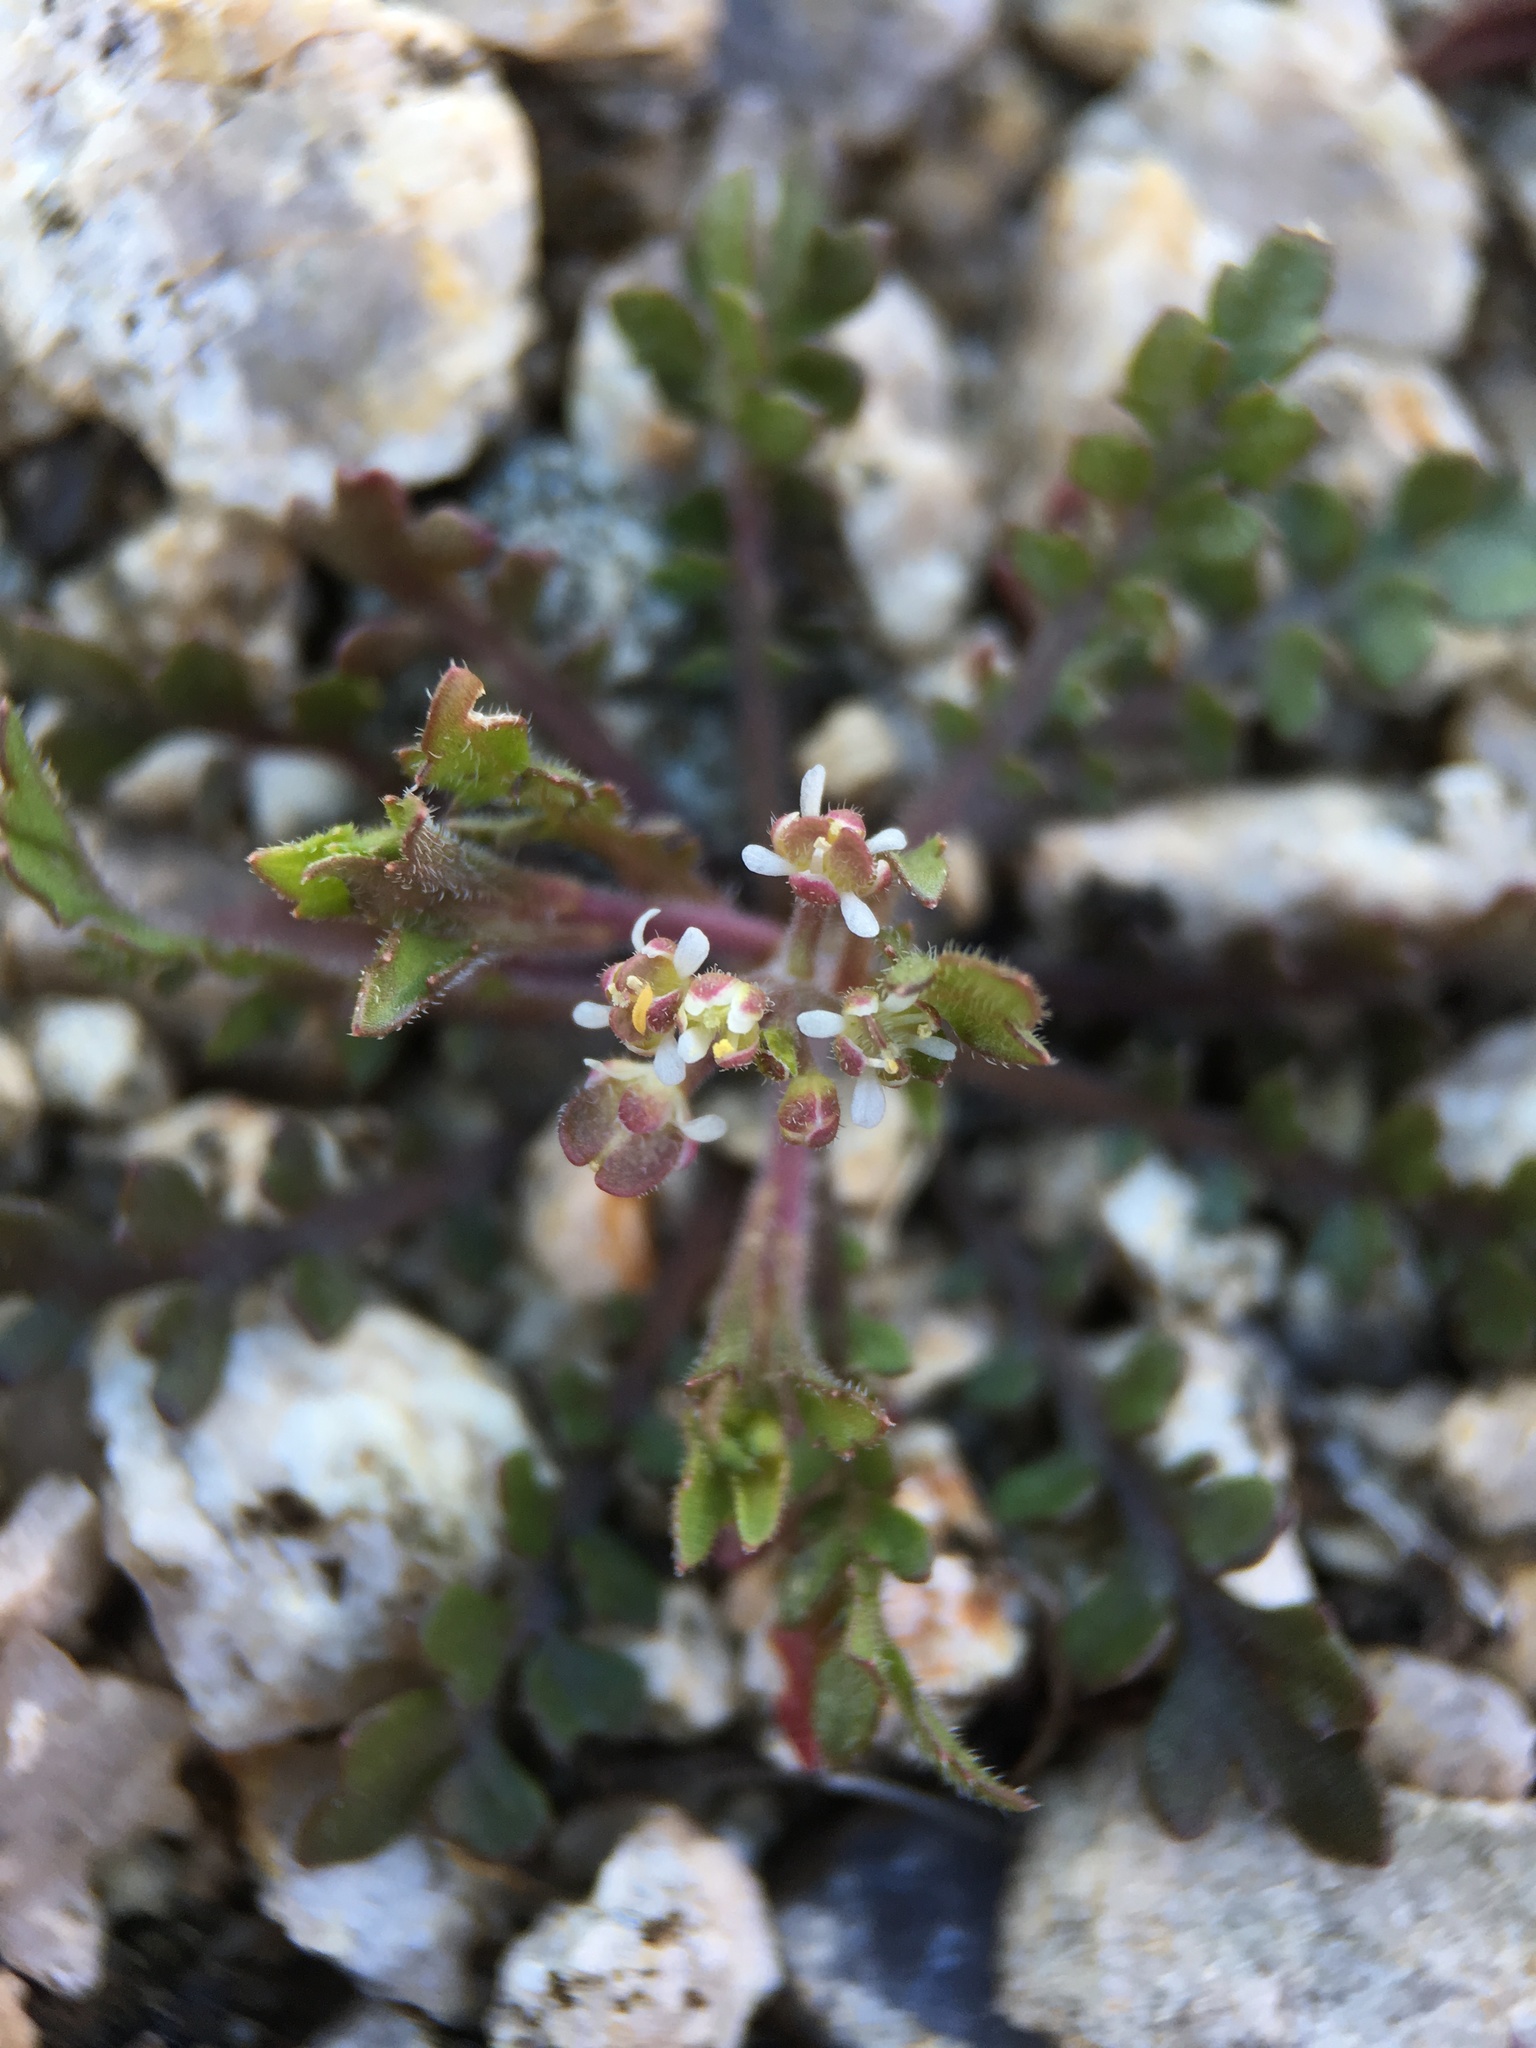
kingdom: Plantae
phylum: Tracheophyta
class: Magnoliopsida
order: Brassicales
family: Brassicaceae
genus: Lepidium
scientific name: Lepidium lasiocarpum
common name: Hairy-pod pepperwort
